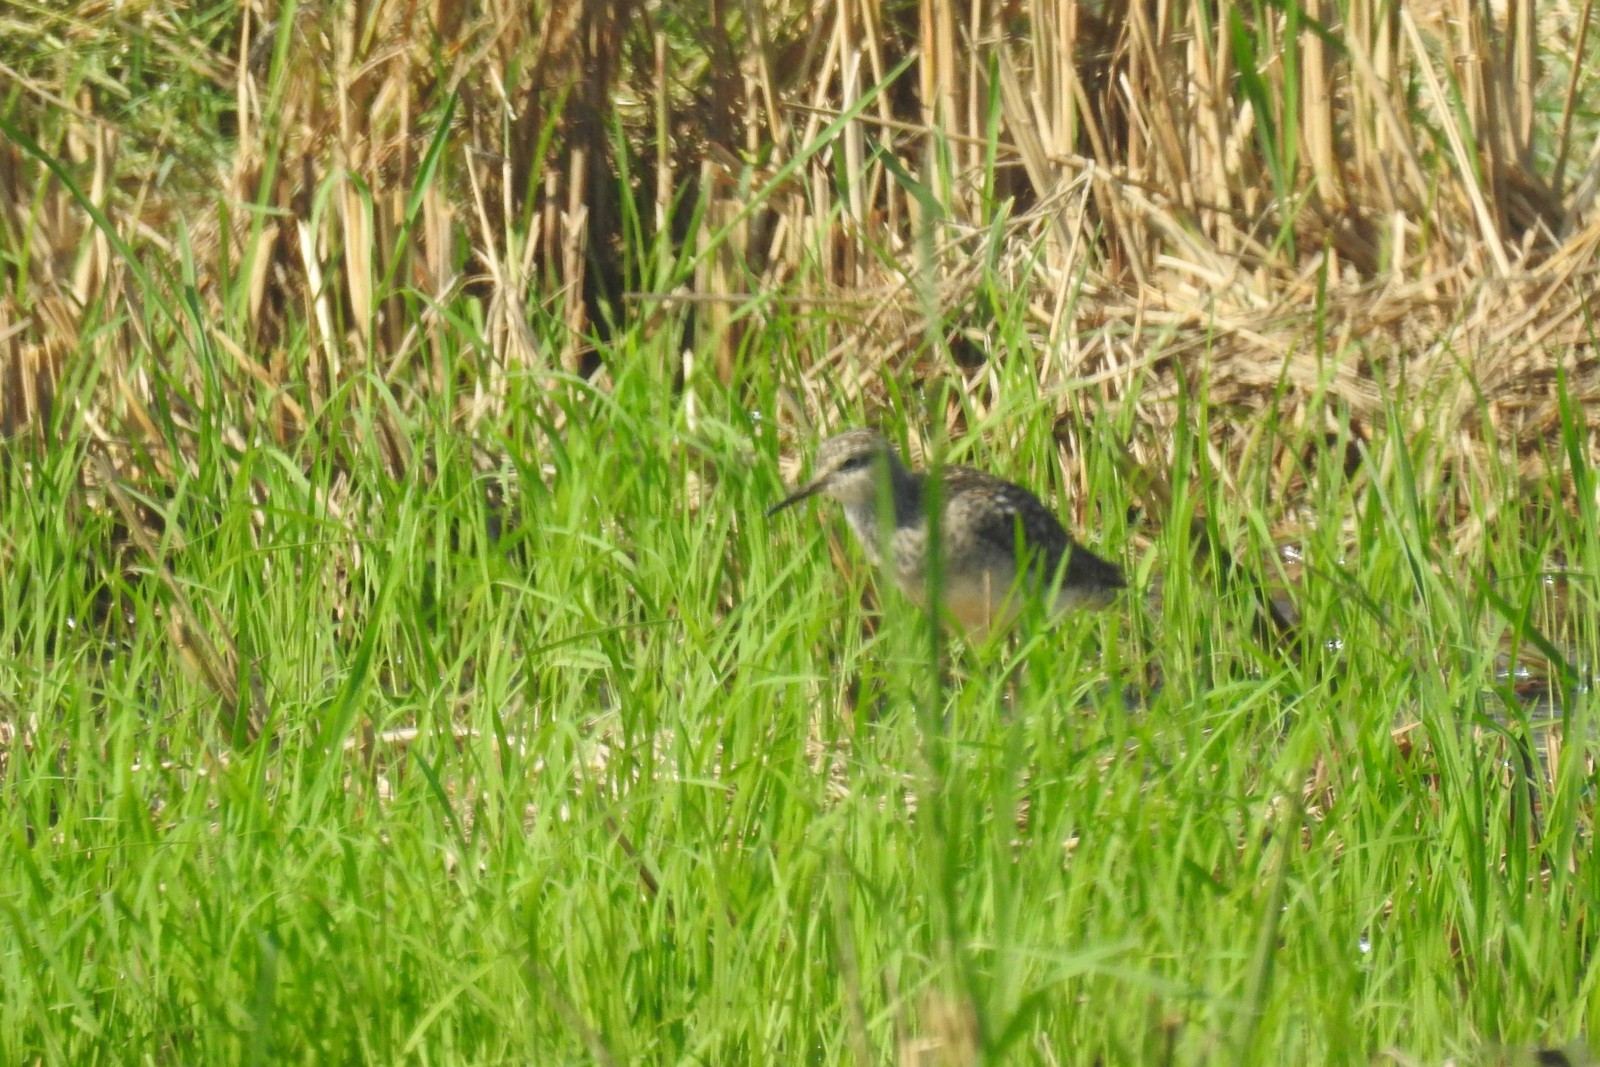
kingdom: Animalia
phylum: Chordata
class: Aves
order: Charadriiformes
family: Scolopacidae
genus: Tringa
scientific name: Tringa glareola
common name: Wood sandpiper
